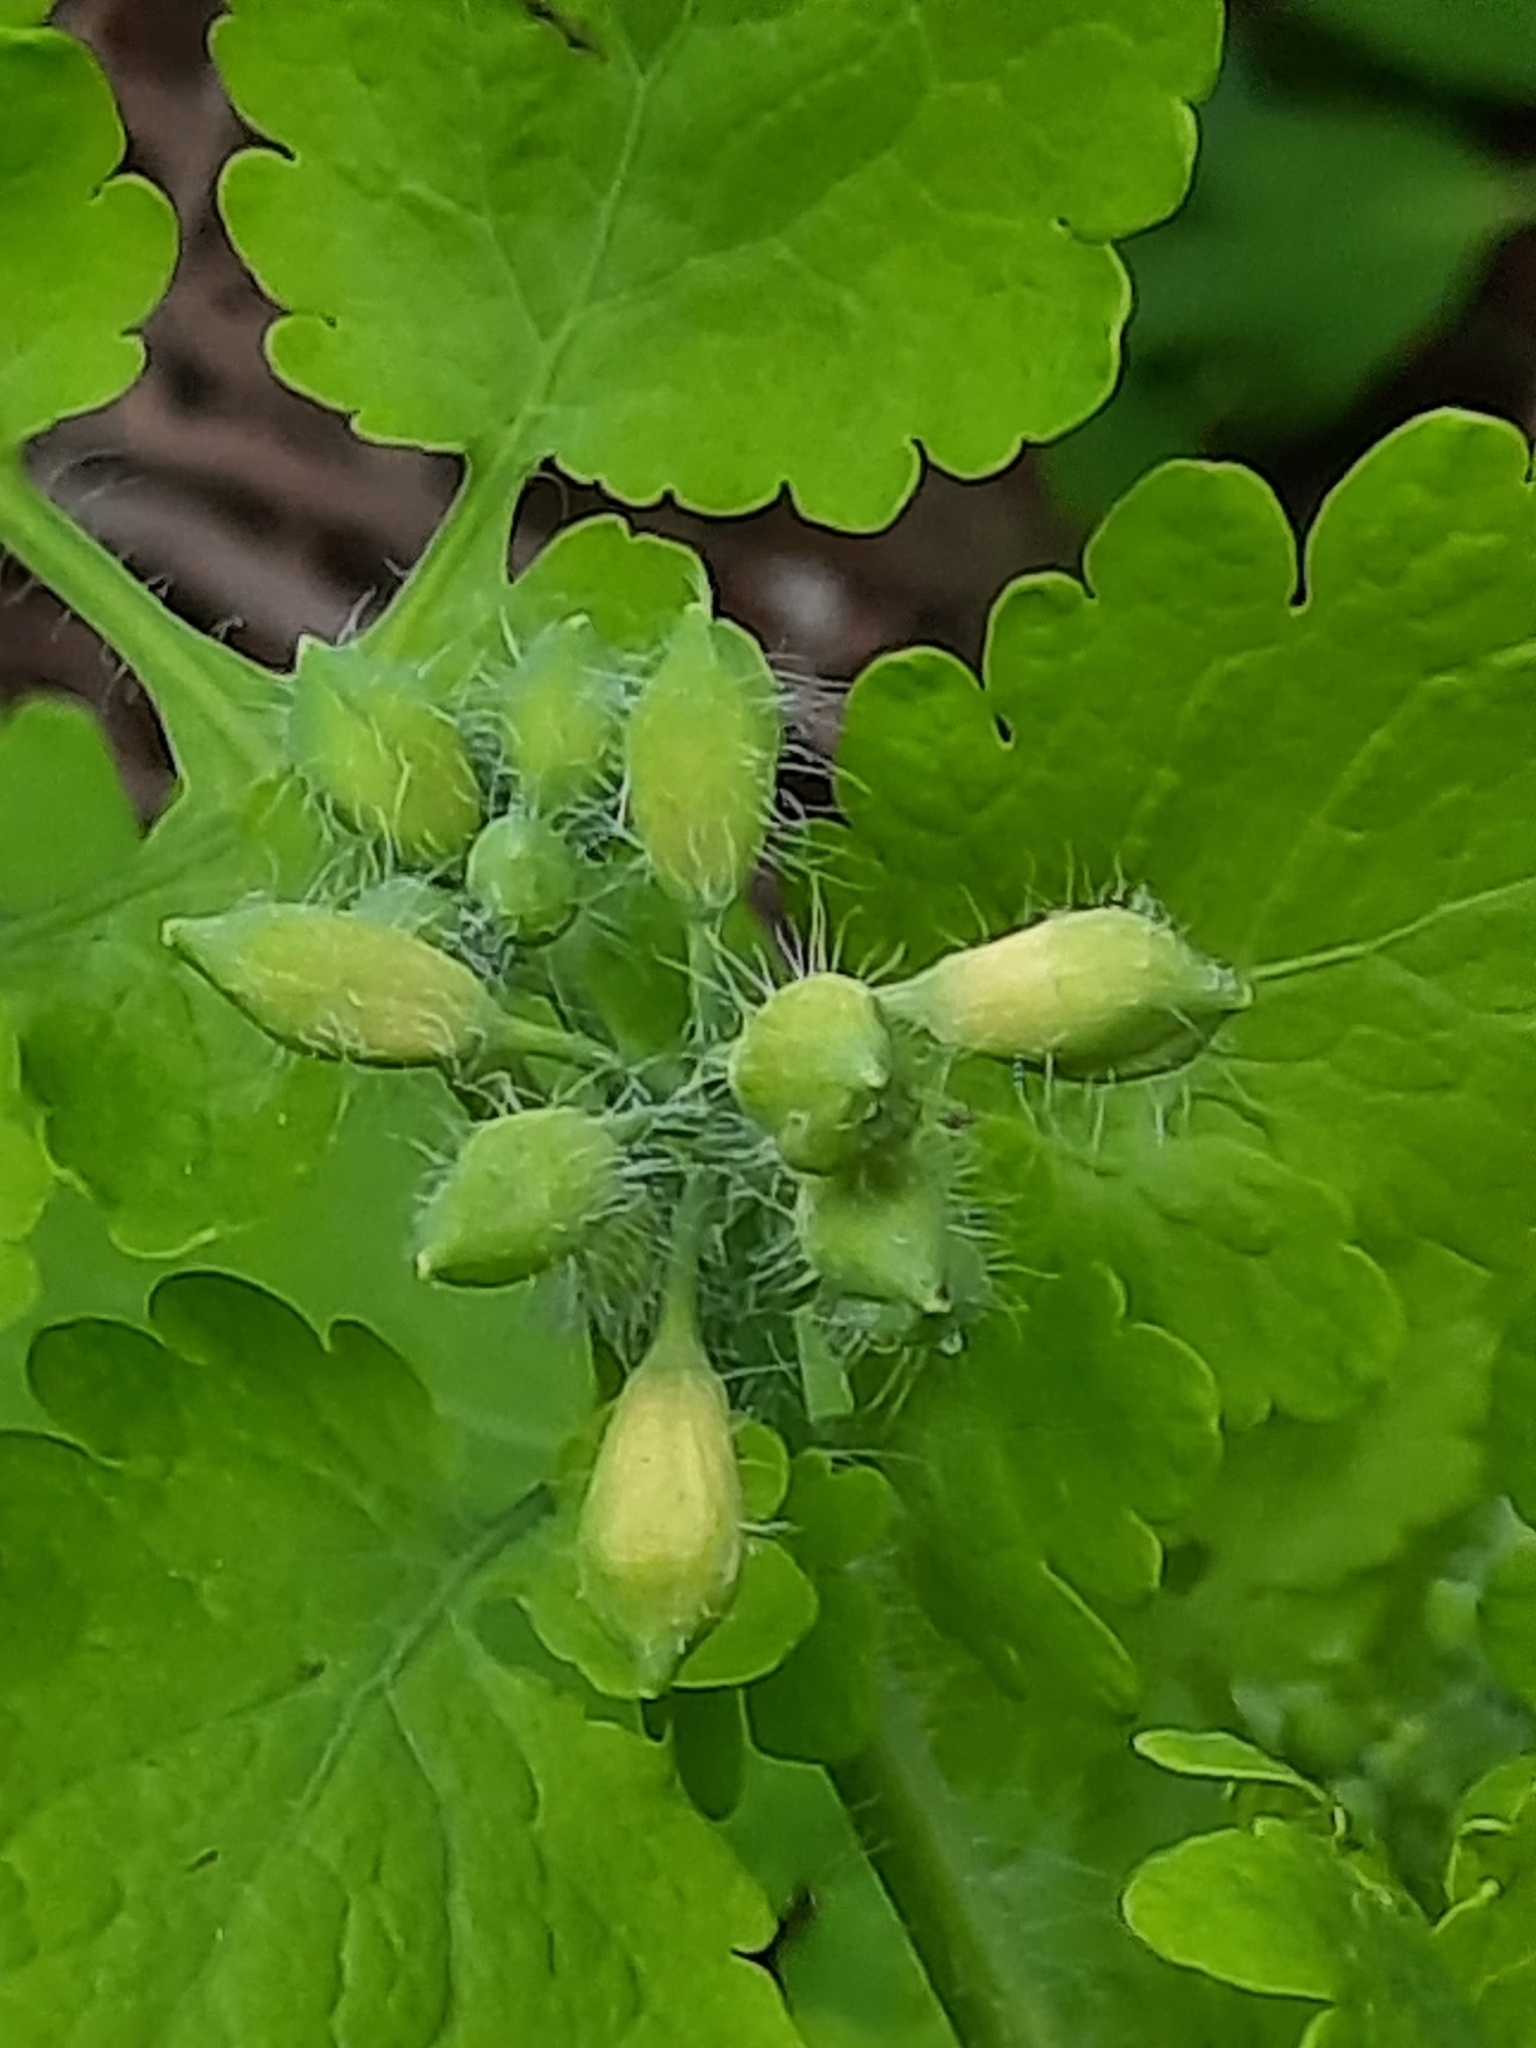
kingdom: Plantae
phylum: Tracheophyta
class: Magnoliopsida
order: Ranunculales
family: Papaveraceae
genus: Chelidonium
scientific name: Chelidonium majus
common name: Greater celandine
